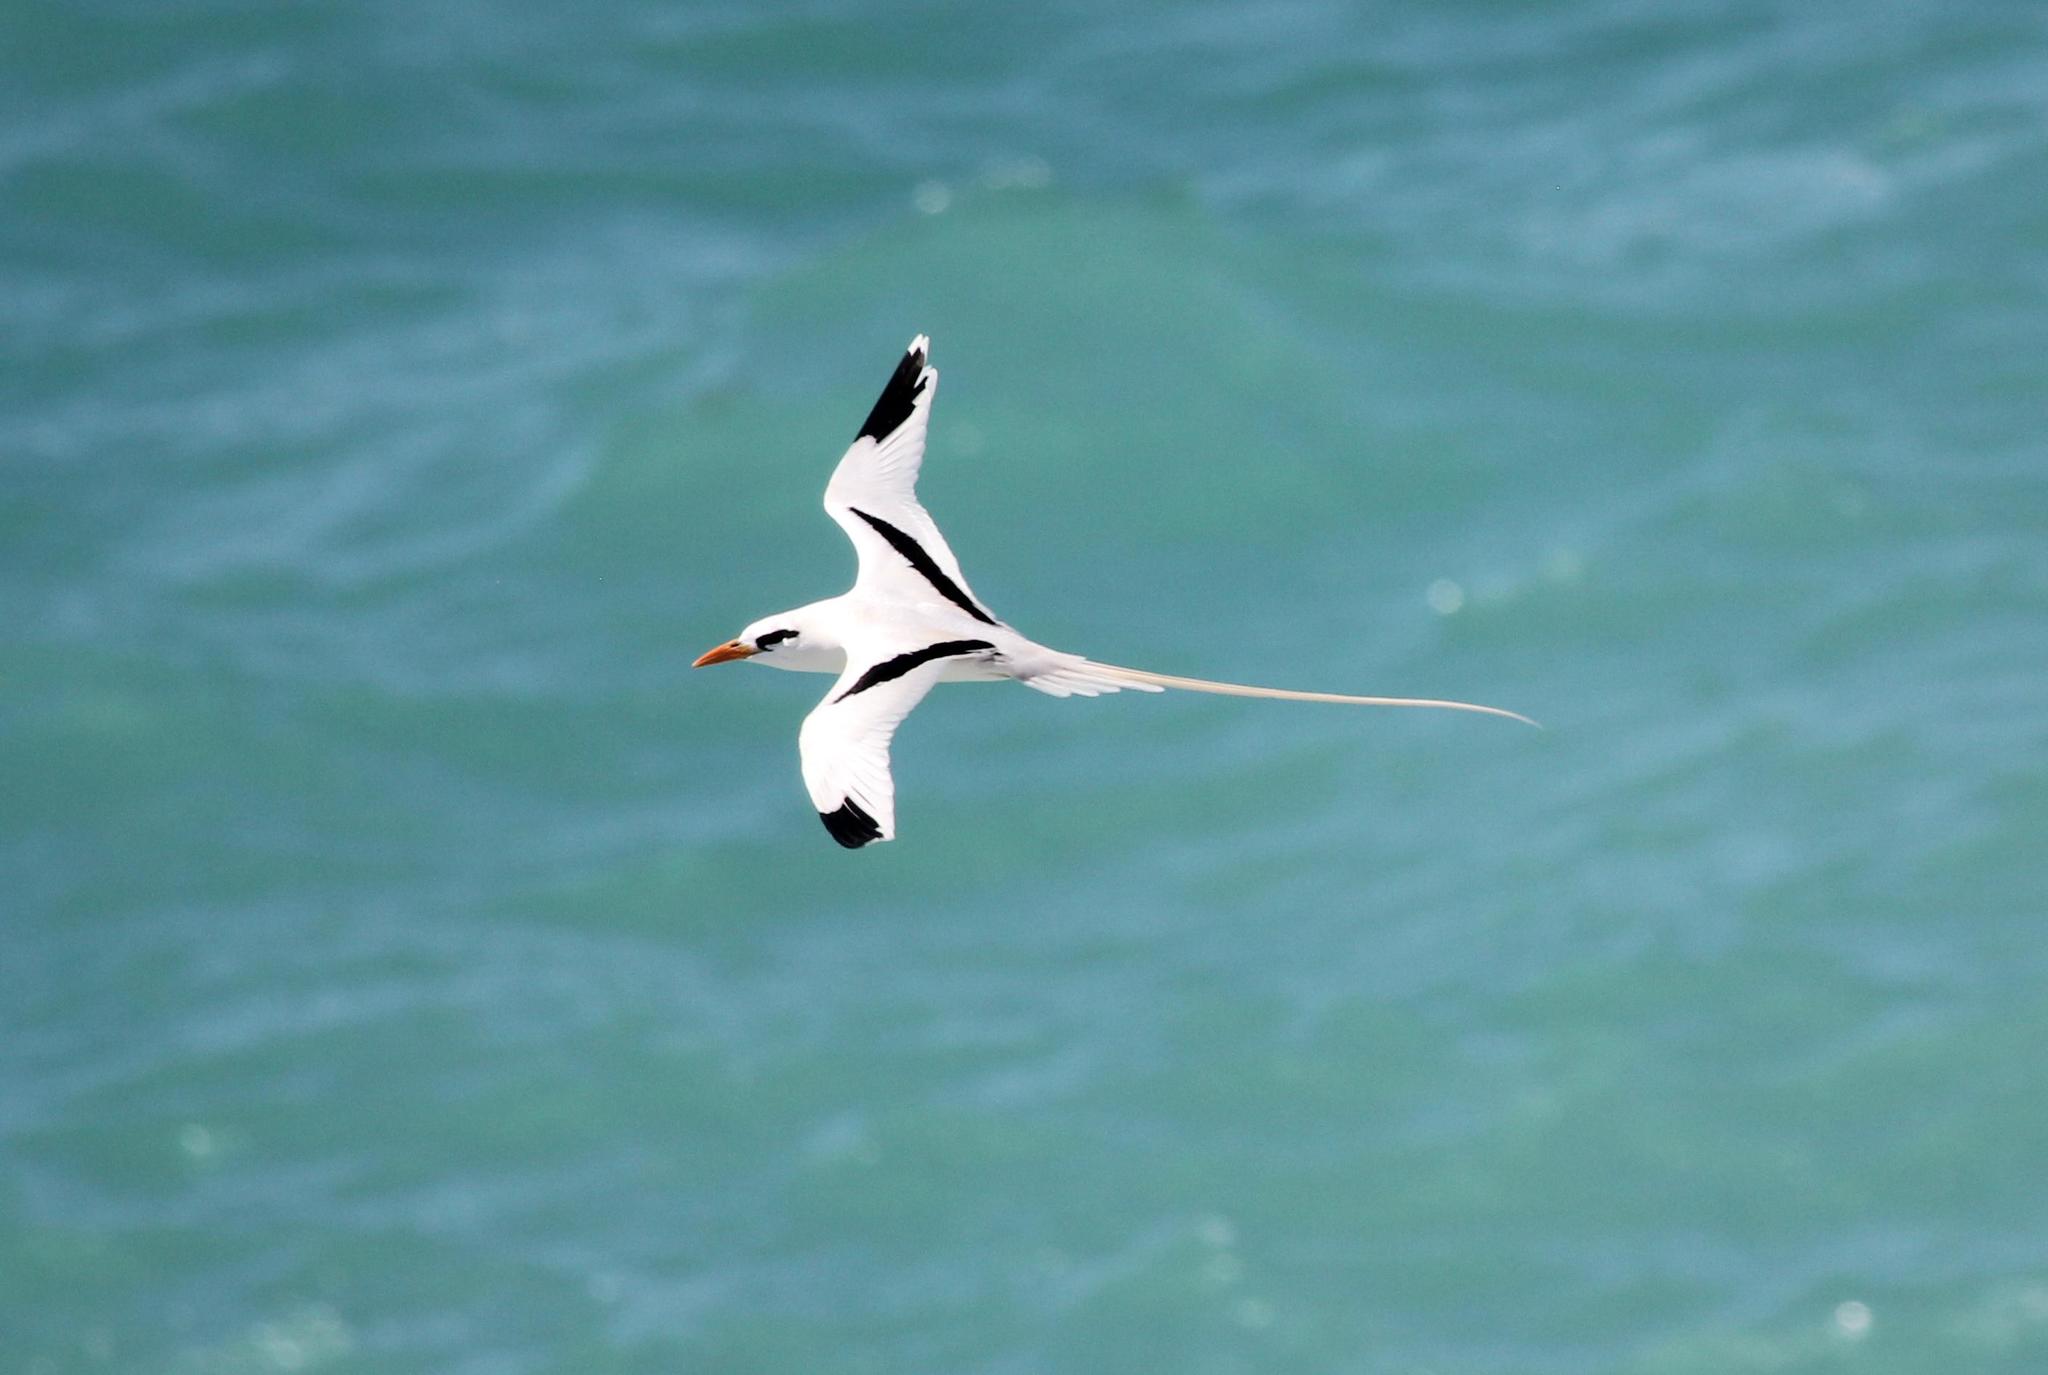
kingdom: Animalia
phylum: Chordata
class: Aves
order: Phaethontiformes
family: Phaethontidae
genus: Phaethon
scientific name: Phaethon lepturus
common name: White-tailed tropicbird
